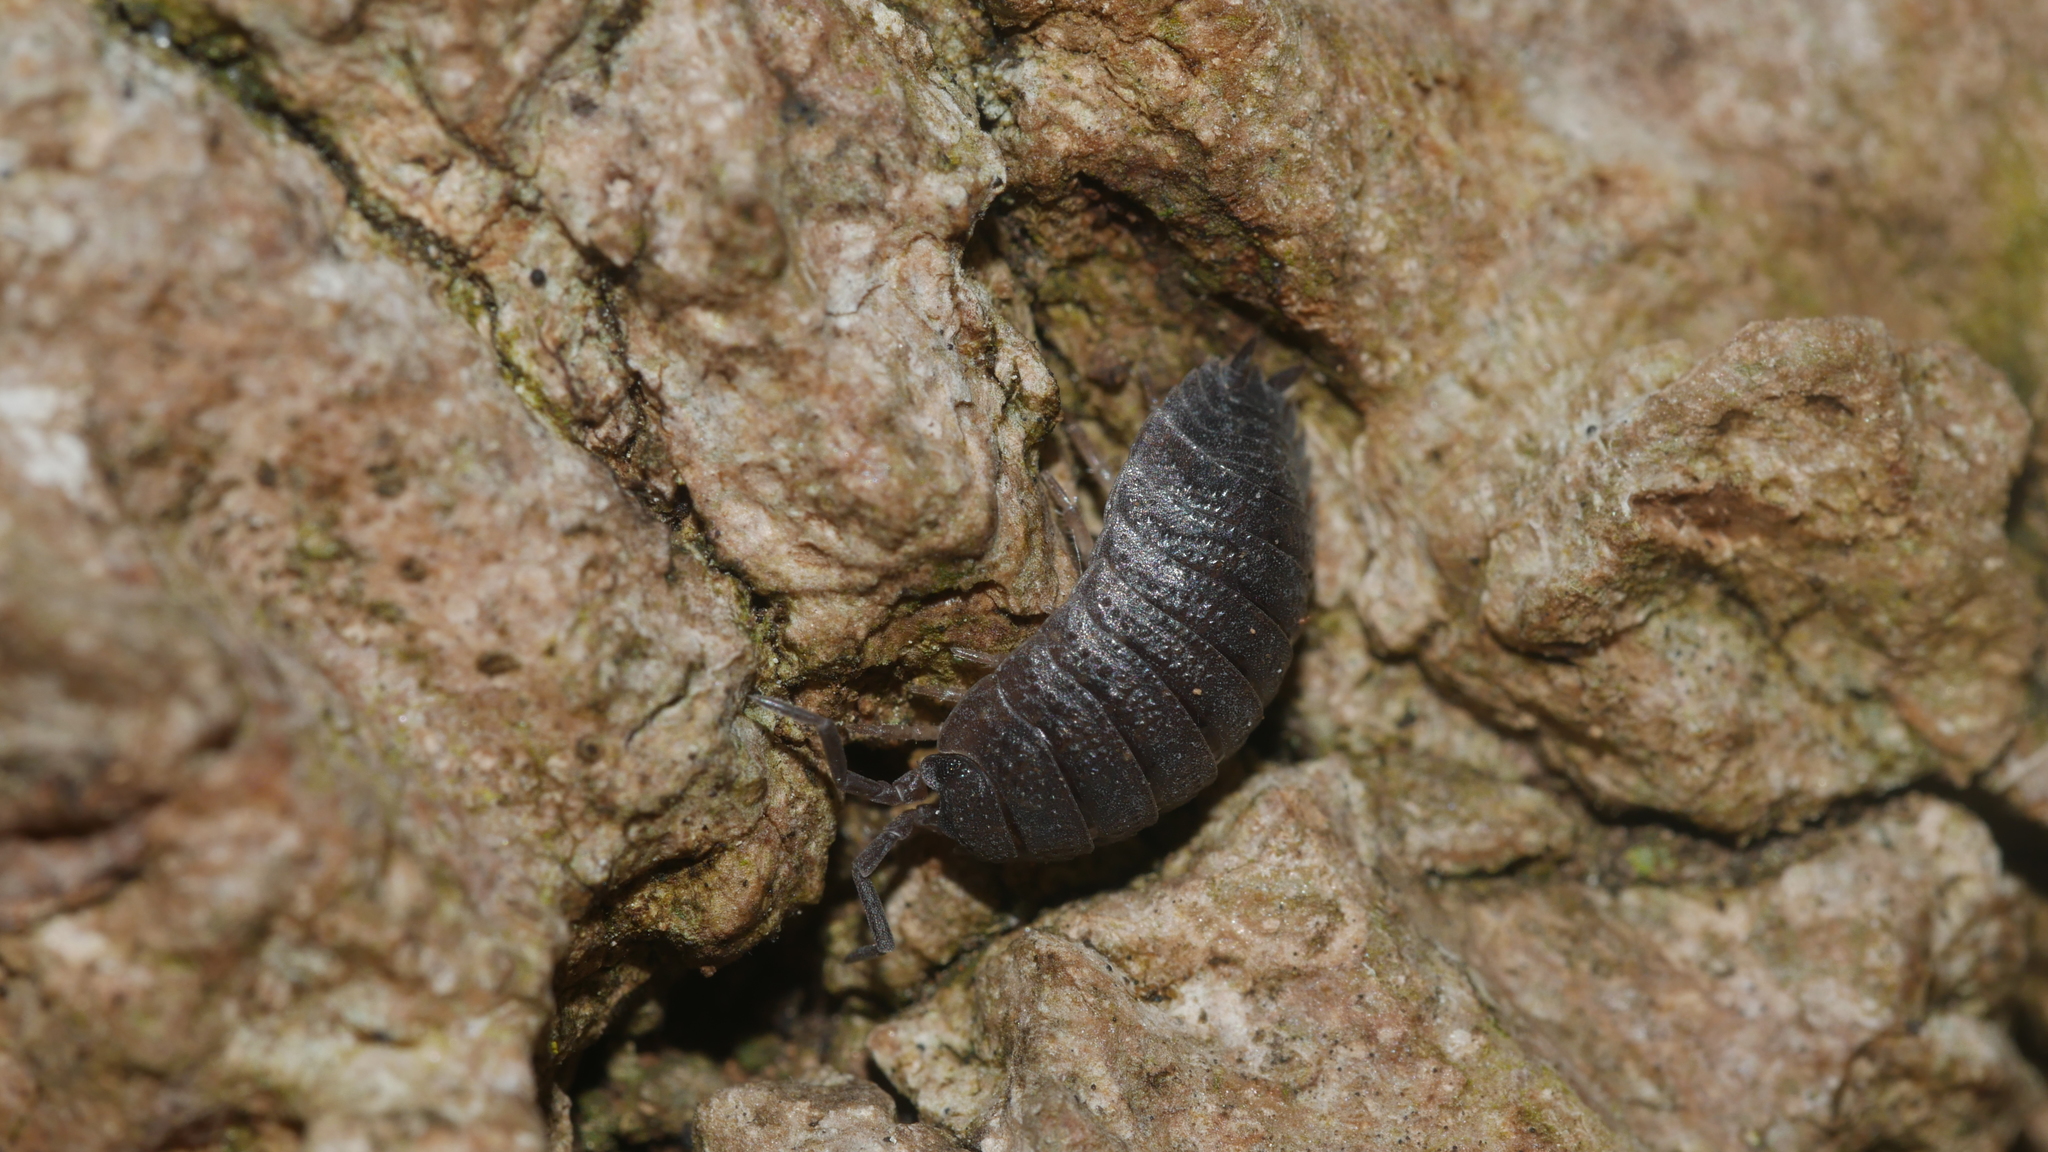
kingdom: Animalia
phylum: Arthropoda
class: Malacostraca
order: Isopoda
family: Porcellionidae
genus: Porcellio
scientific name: Porcellio scaber
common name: Common rough woodlouse
